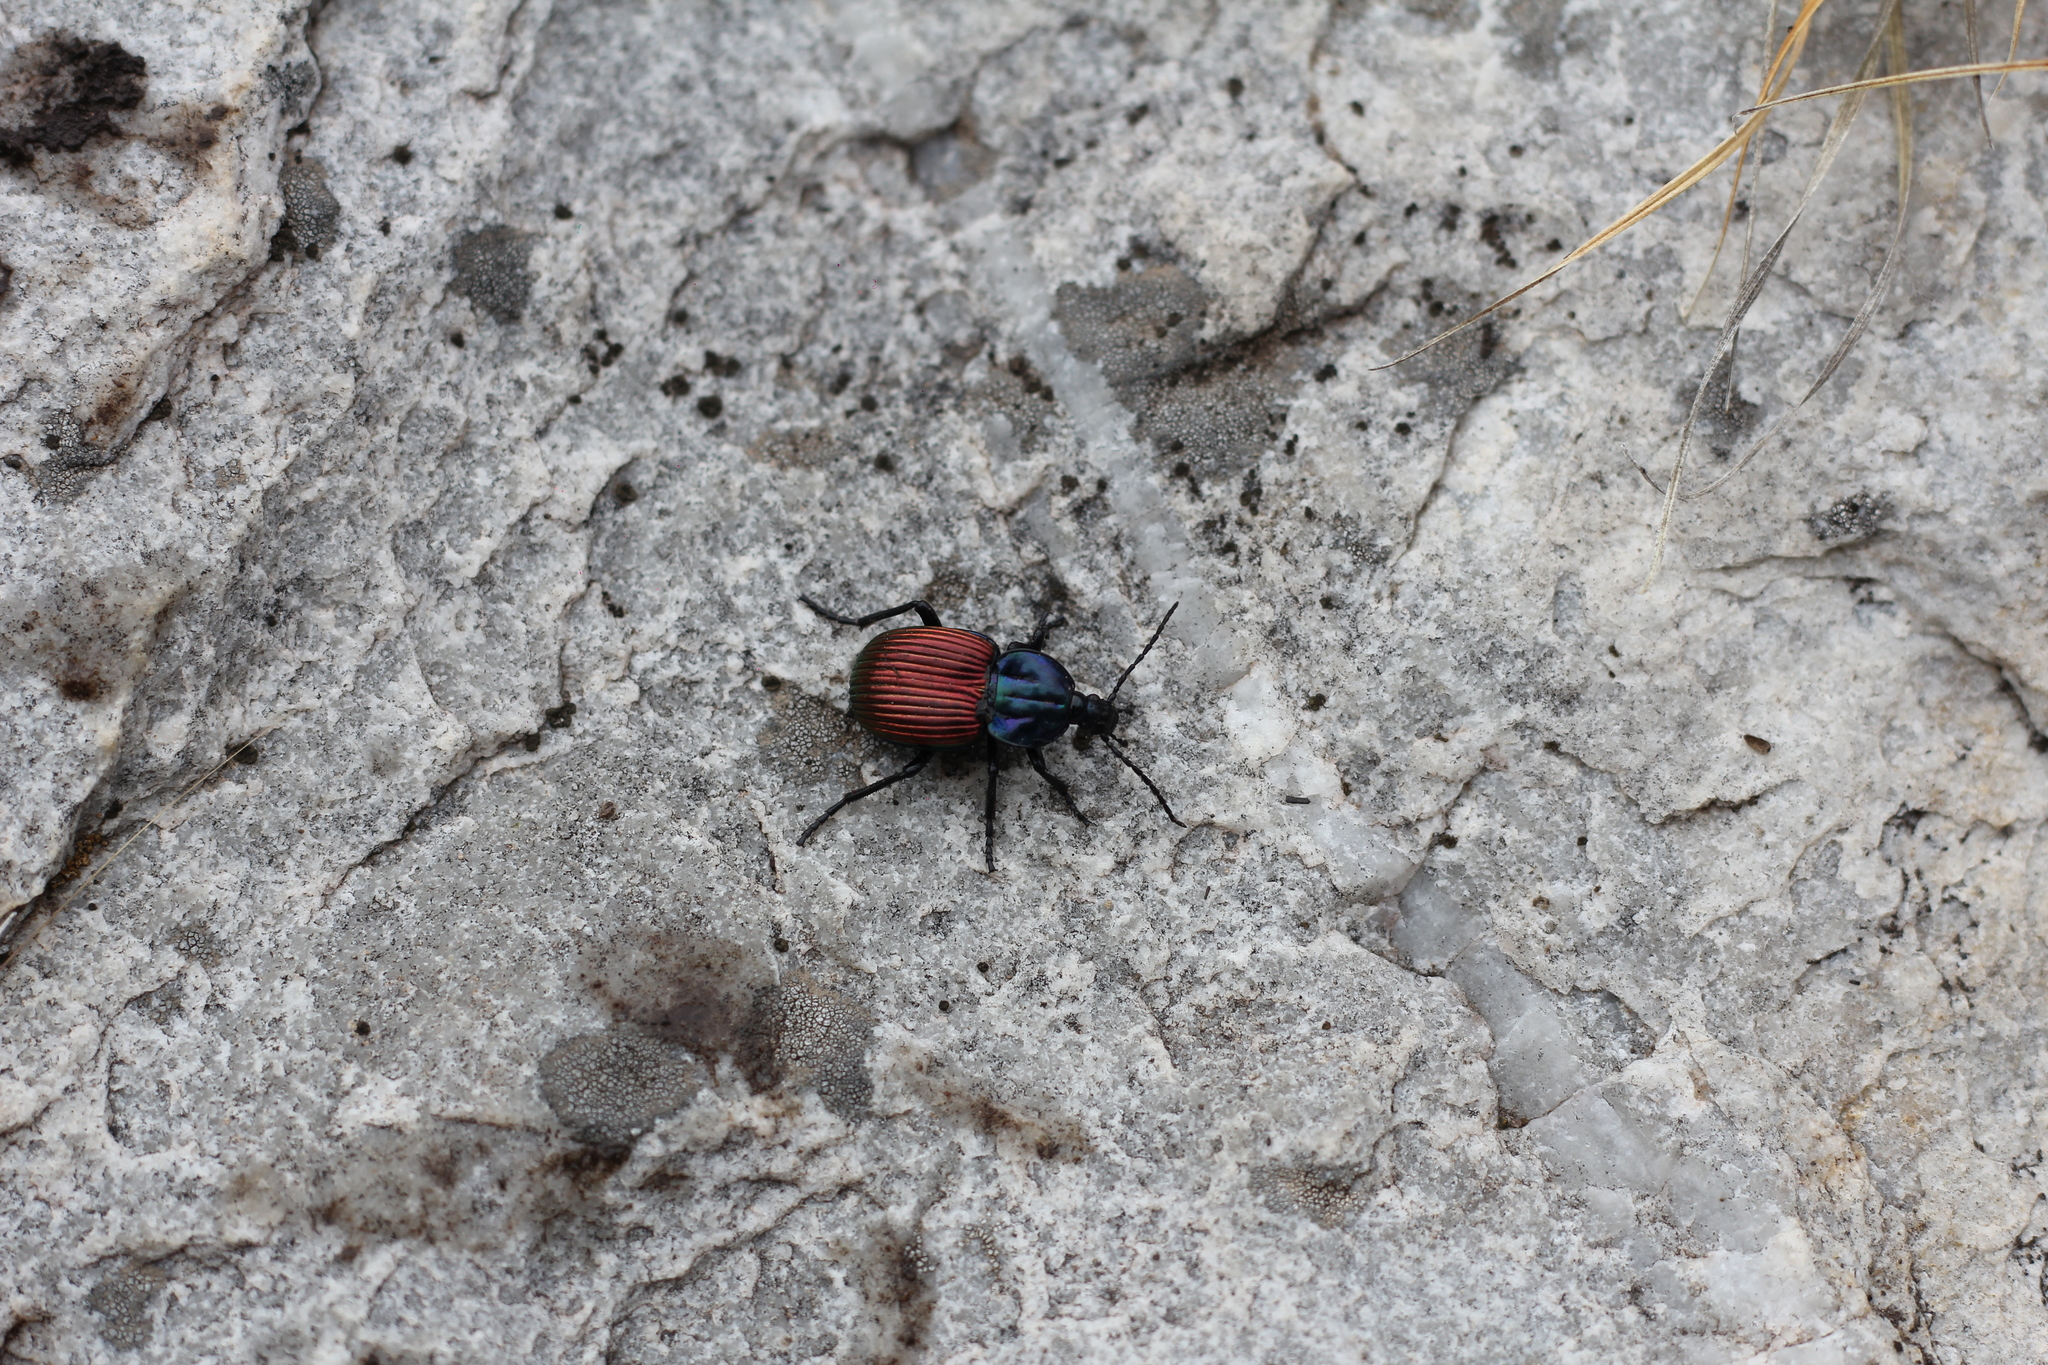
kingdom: Animalia
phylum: Arthropoda
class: Insecta
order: Coleoptera
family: Carabidae
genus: Brachygnathus
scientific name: Brachygnathus festivus
